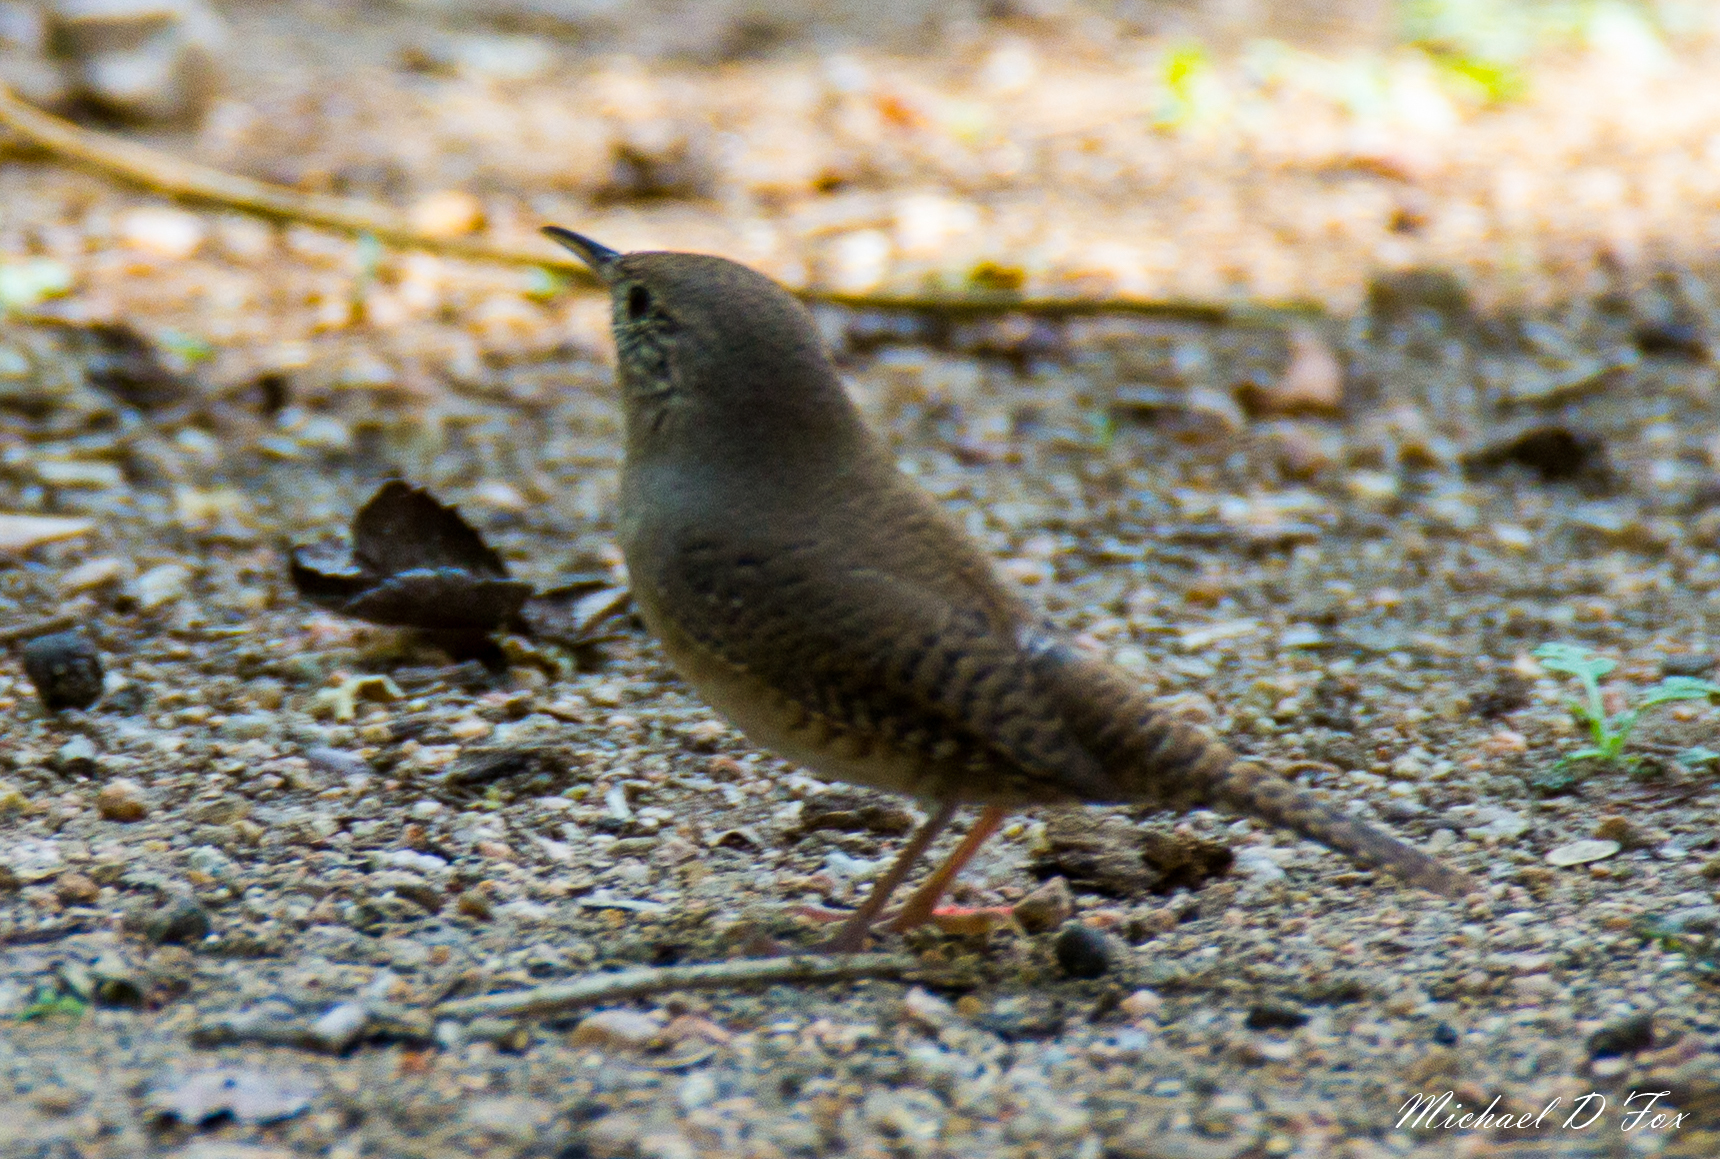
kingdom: Animalia
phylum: Chordata
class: Aves
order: Passeriformes
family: Troglodytidae
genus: Troglodytes
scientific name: Troglodytes aedon
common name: House wren
